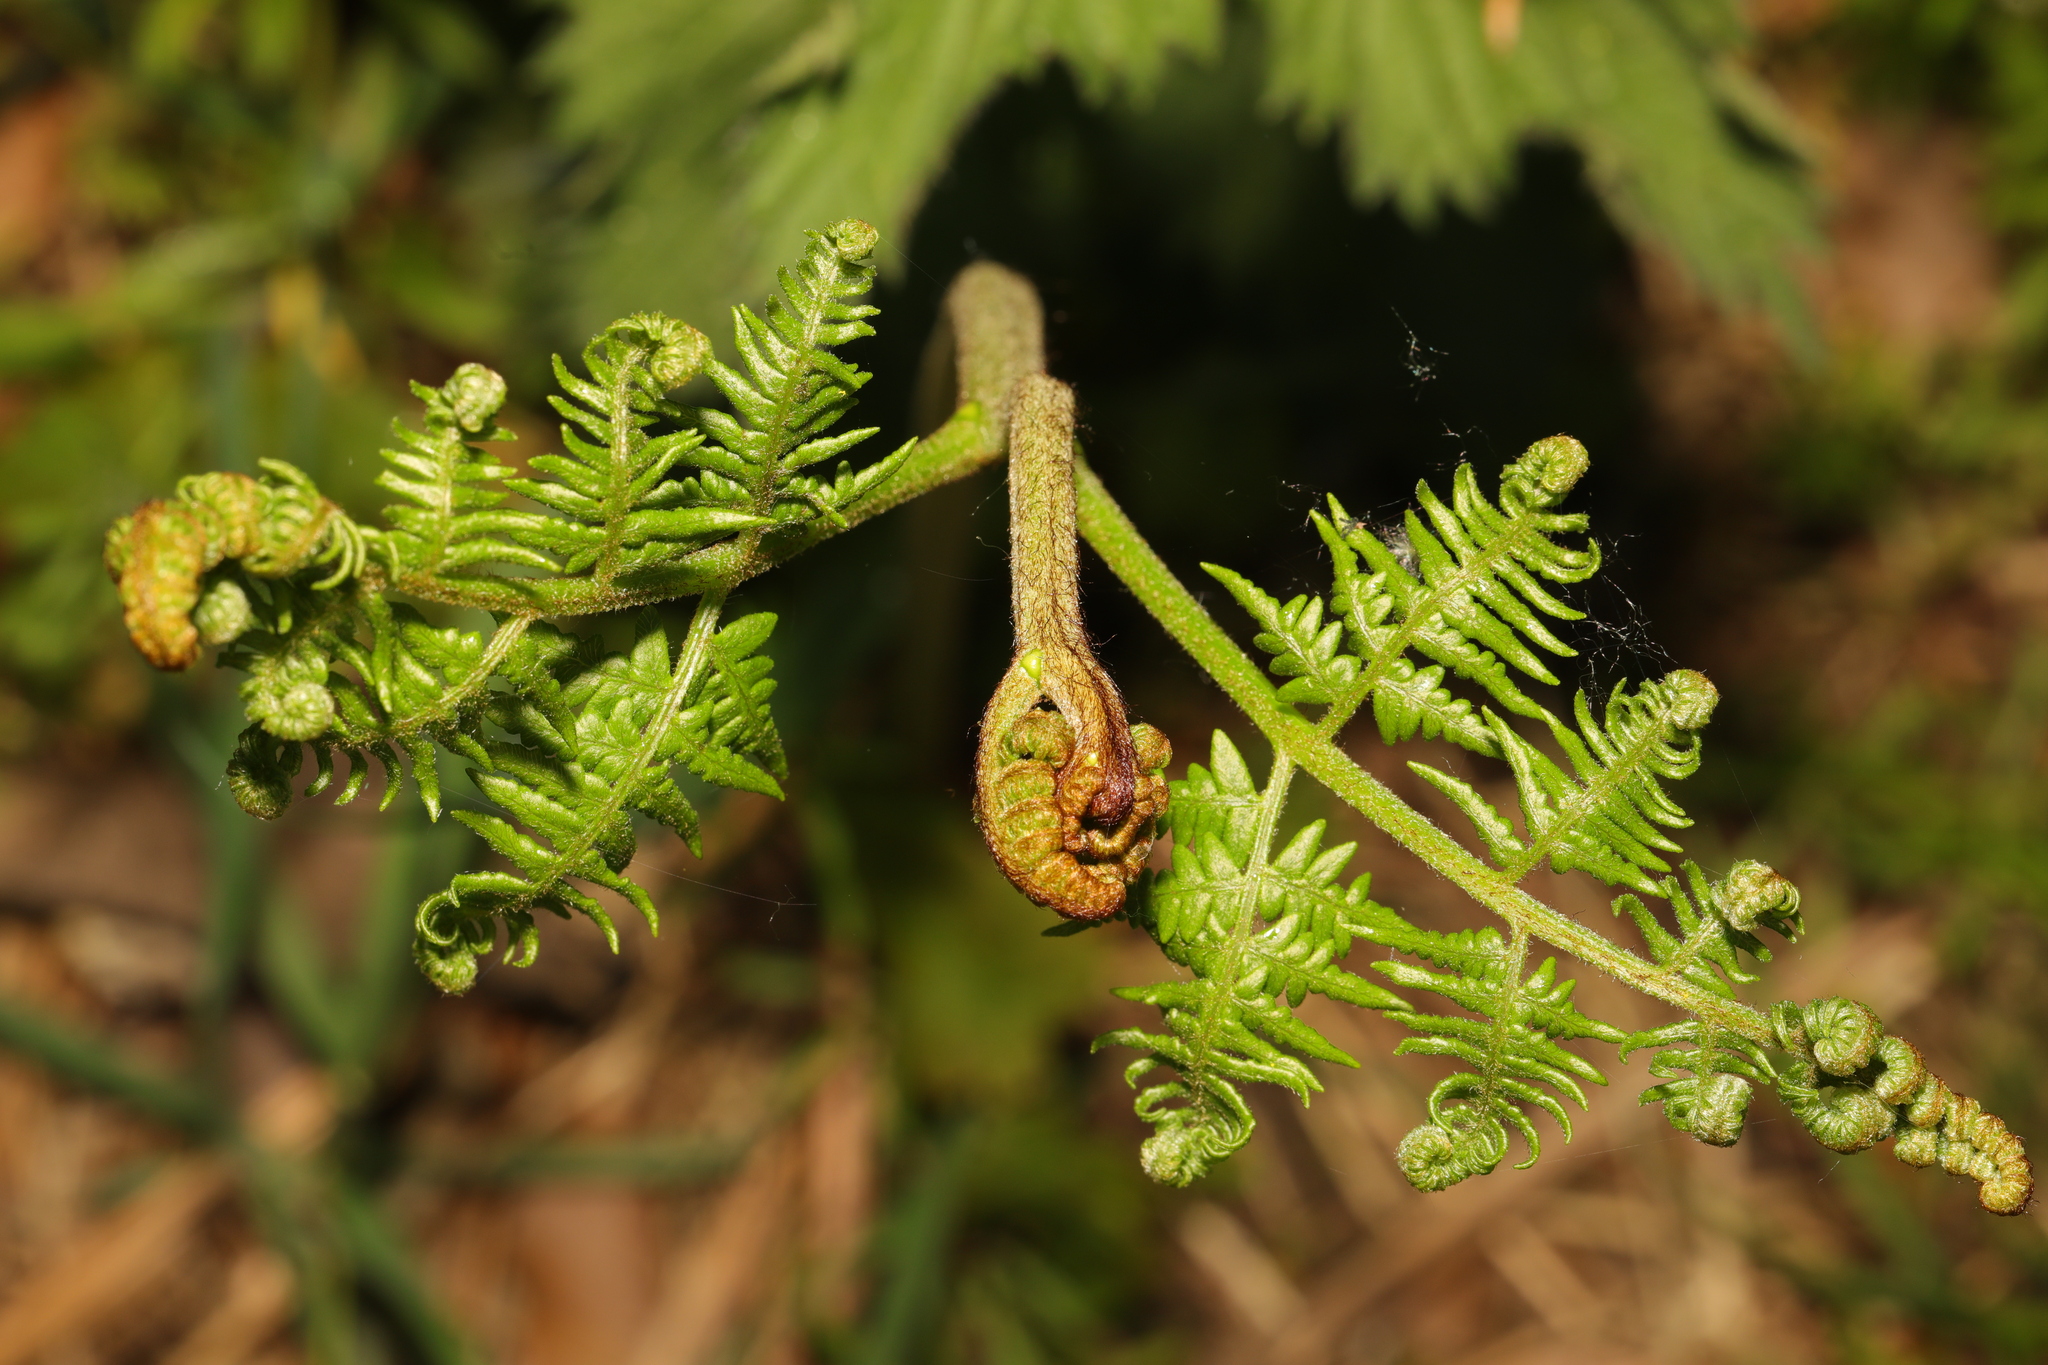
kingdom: Plantae
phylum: Tracheophyta
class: Polypodiopsida
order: Polypodiales
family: Dennstaedtiaceae
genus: Pteridium
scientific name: Pteridium aquilinum
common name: Bracken
